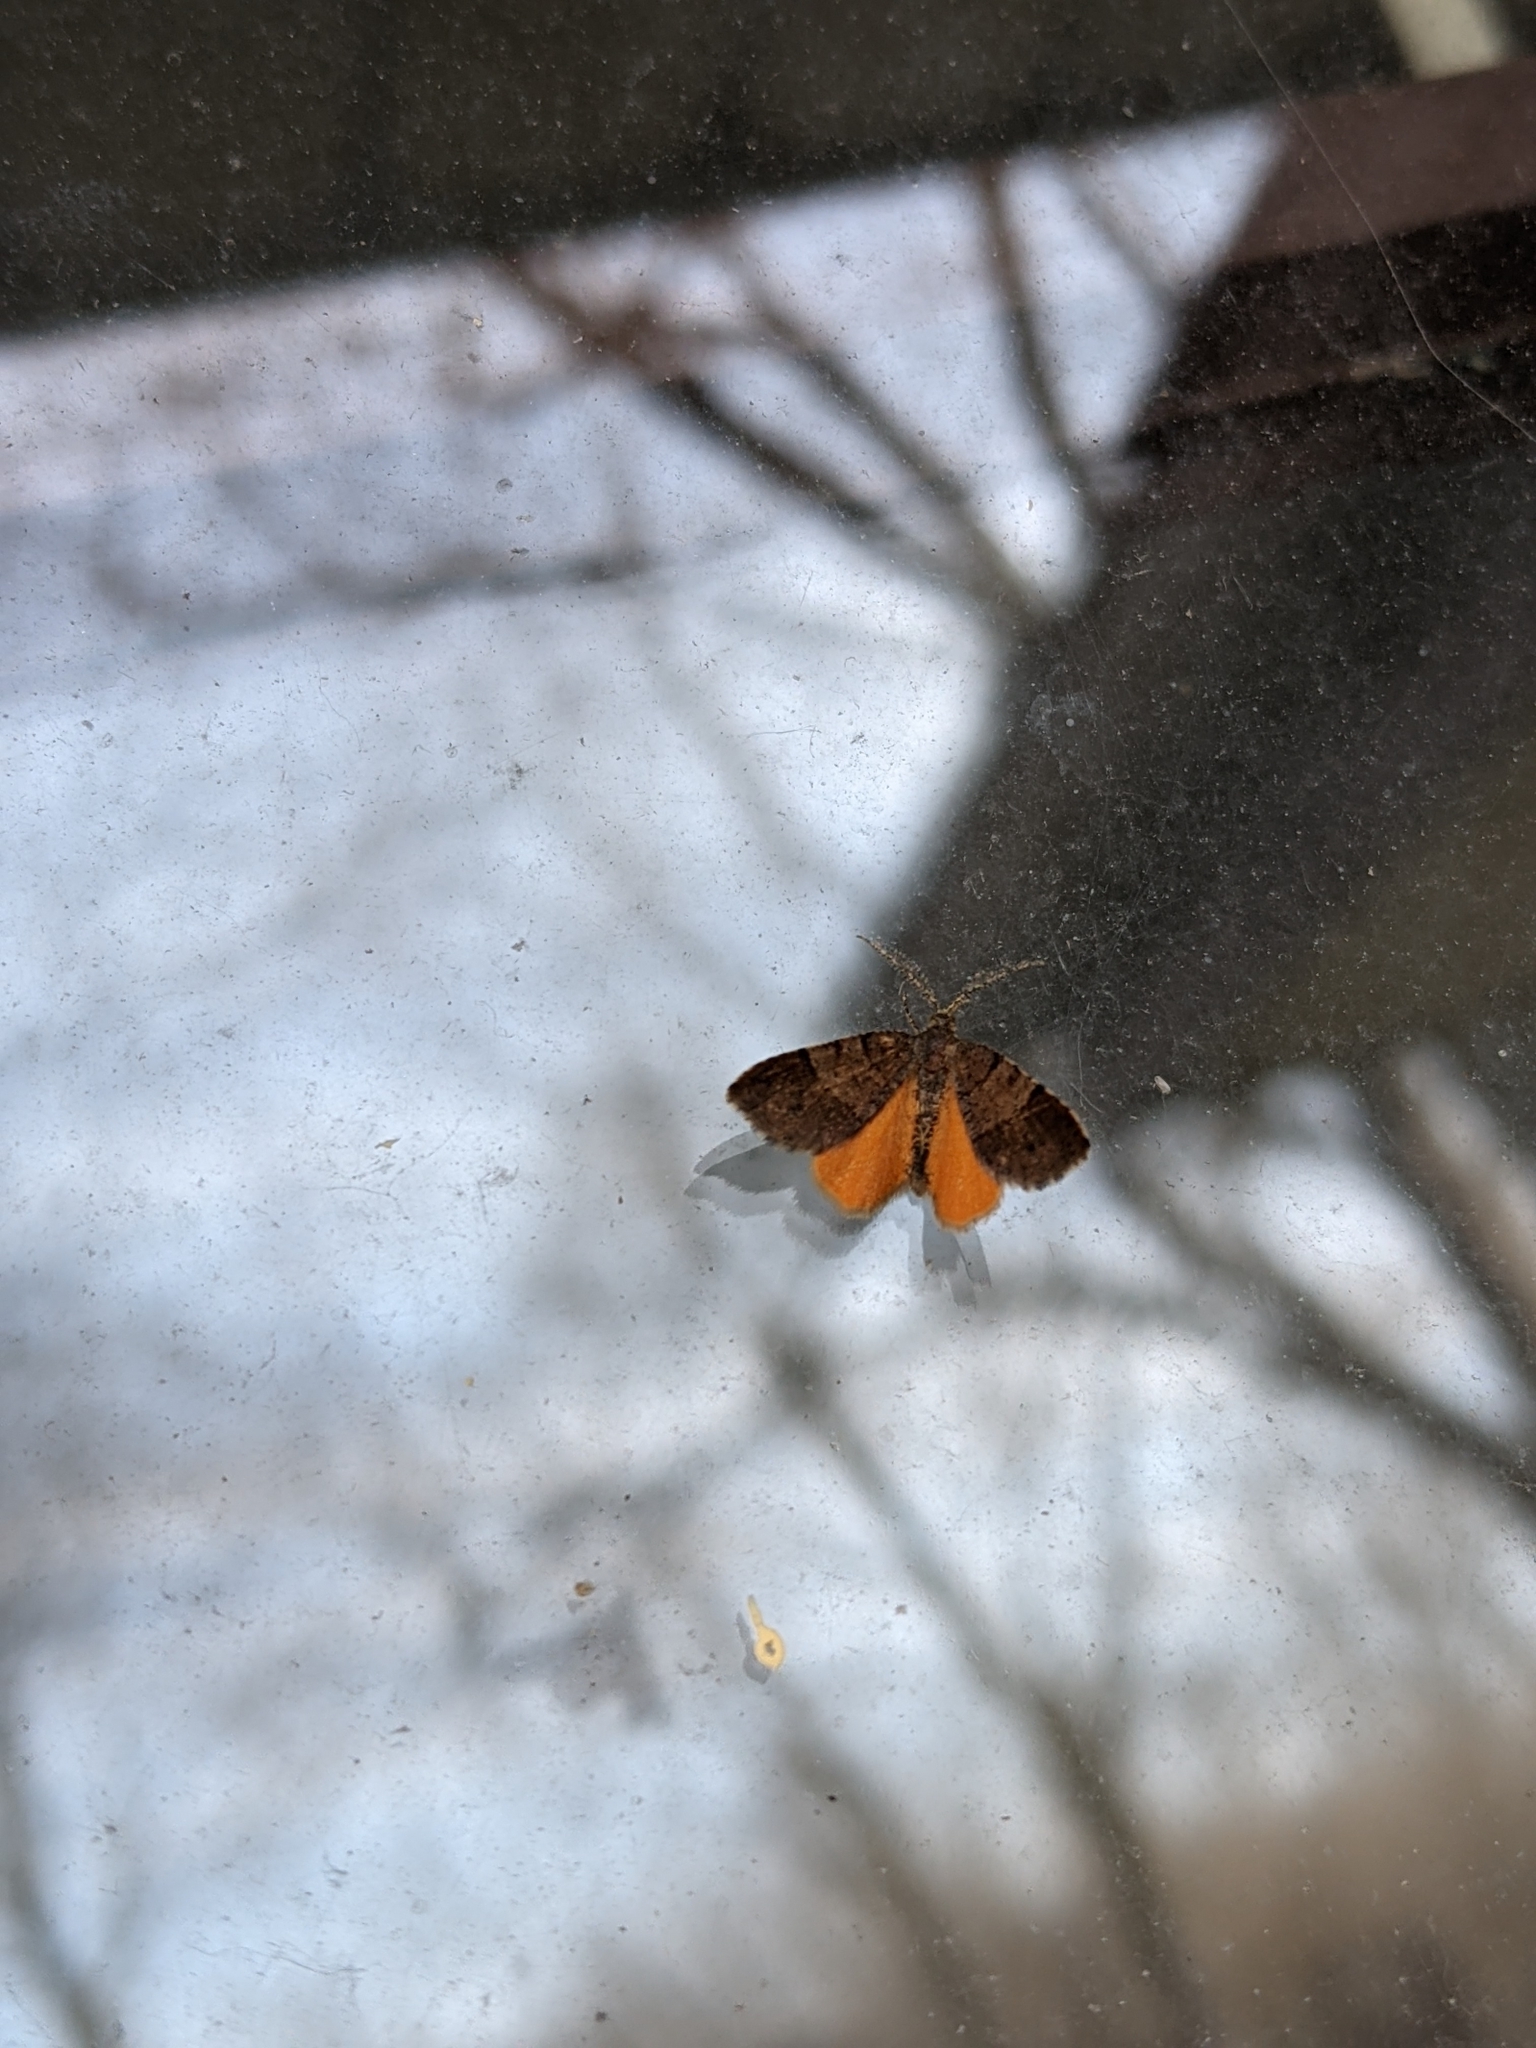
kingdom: Animalia
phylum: Arthropoda
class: Insecta
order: Lepidoptera
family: Geometridae
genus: Mellilla
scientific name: Mellilla xanthometata
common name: Orange wing moth
